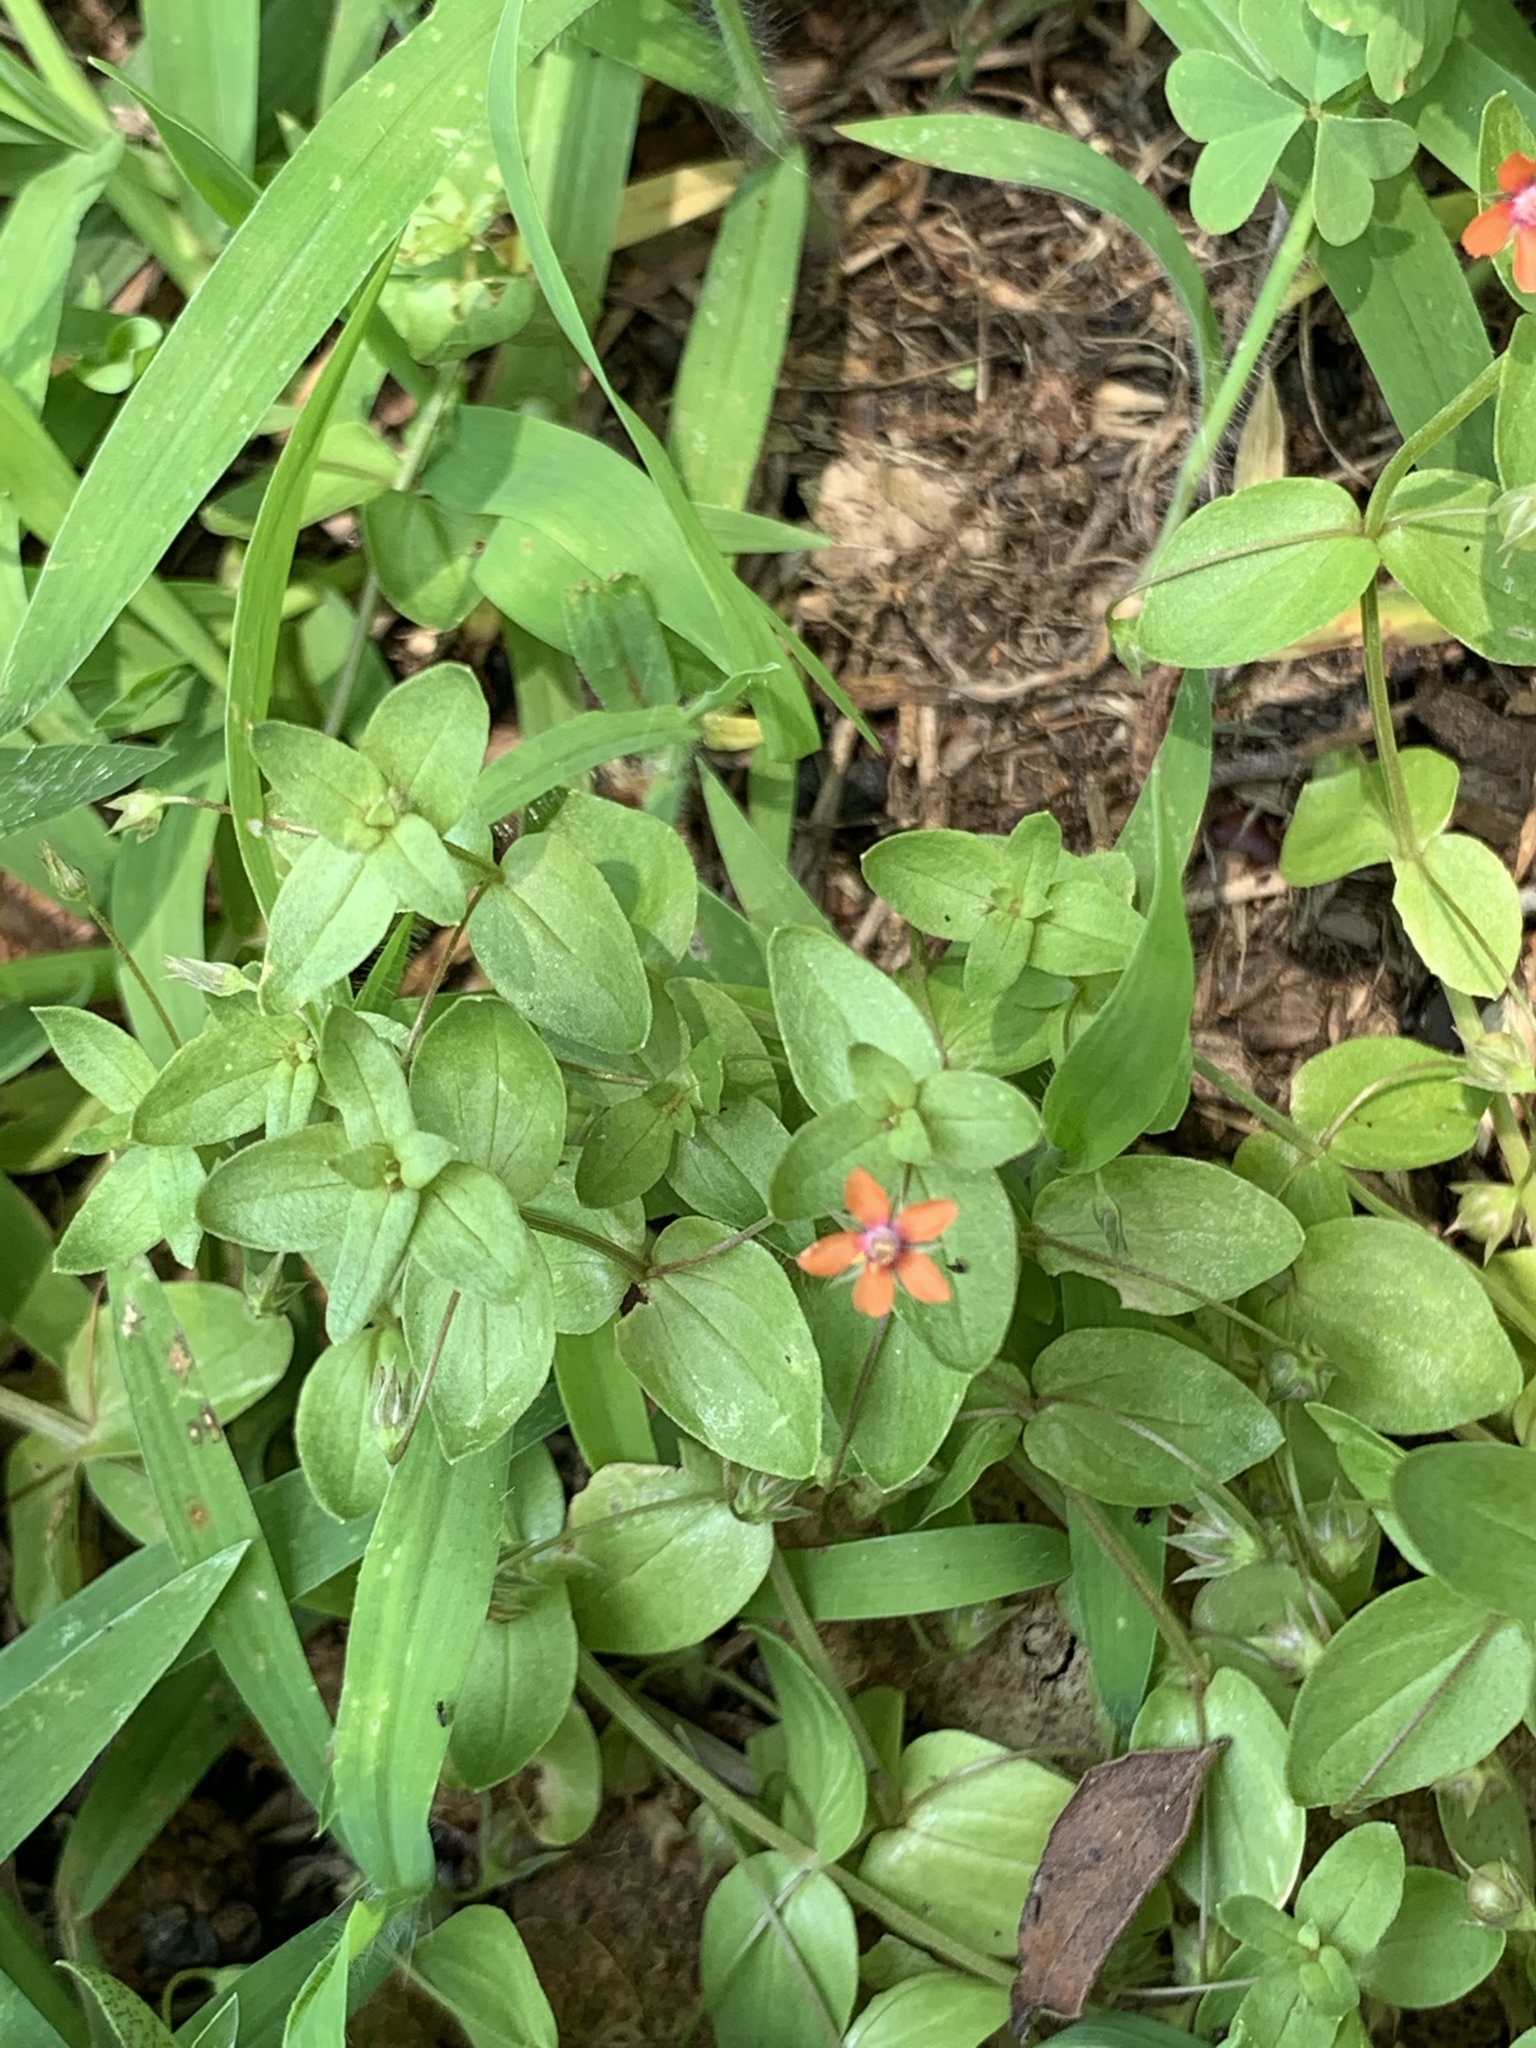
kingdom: Plantae
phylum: Tracheophyta
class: Magnoliopsida
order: Ericales
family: Primulaceae
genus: Lysimachia
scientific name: Lysimachia arvensis
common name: Scarlet pimpernel
